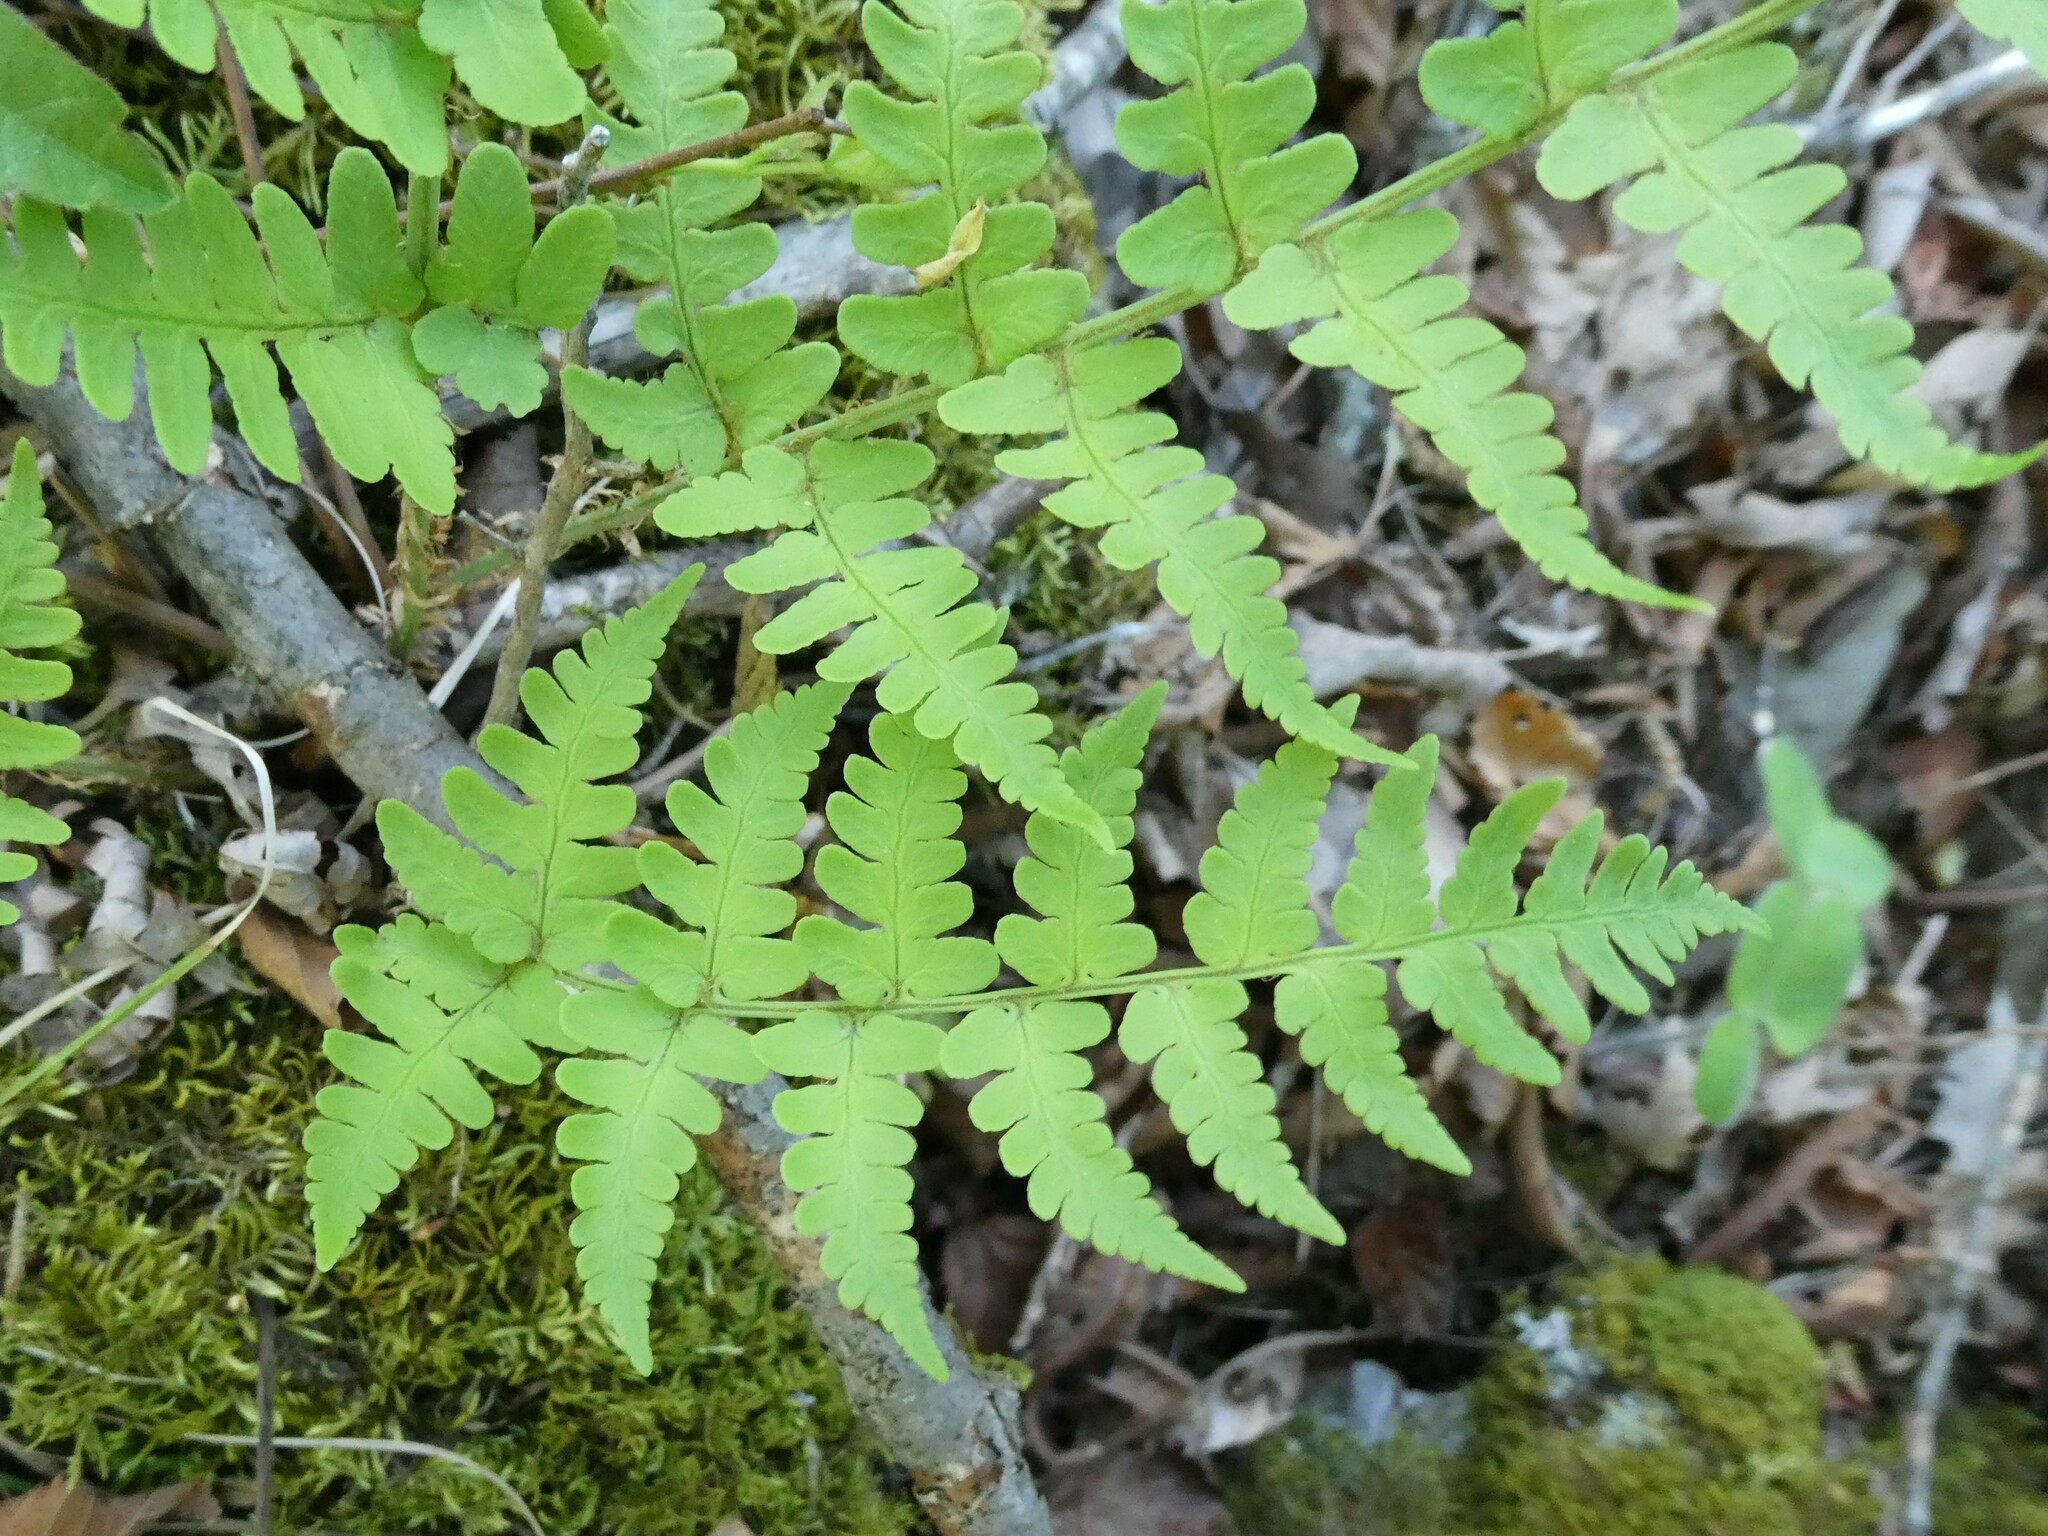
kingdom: Plantae
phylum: Tracheophyta
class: Polypodiopsida
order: Polypodiales
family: Dryopteridaceae
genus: Dryopteris
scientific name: Dryopteris marginalis
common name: Marginal wood fern
